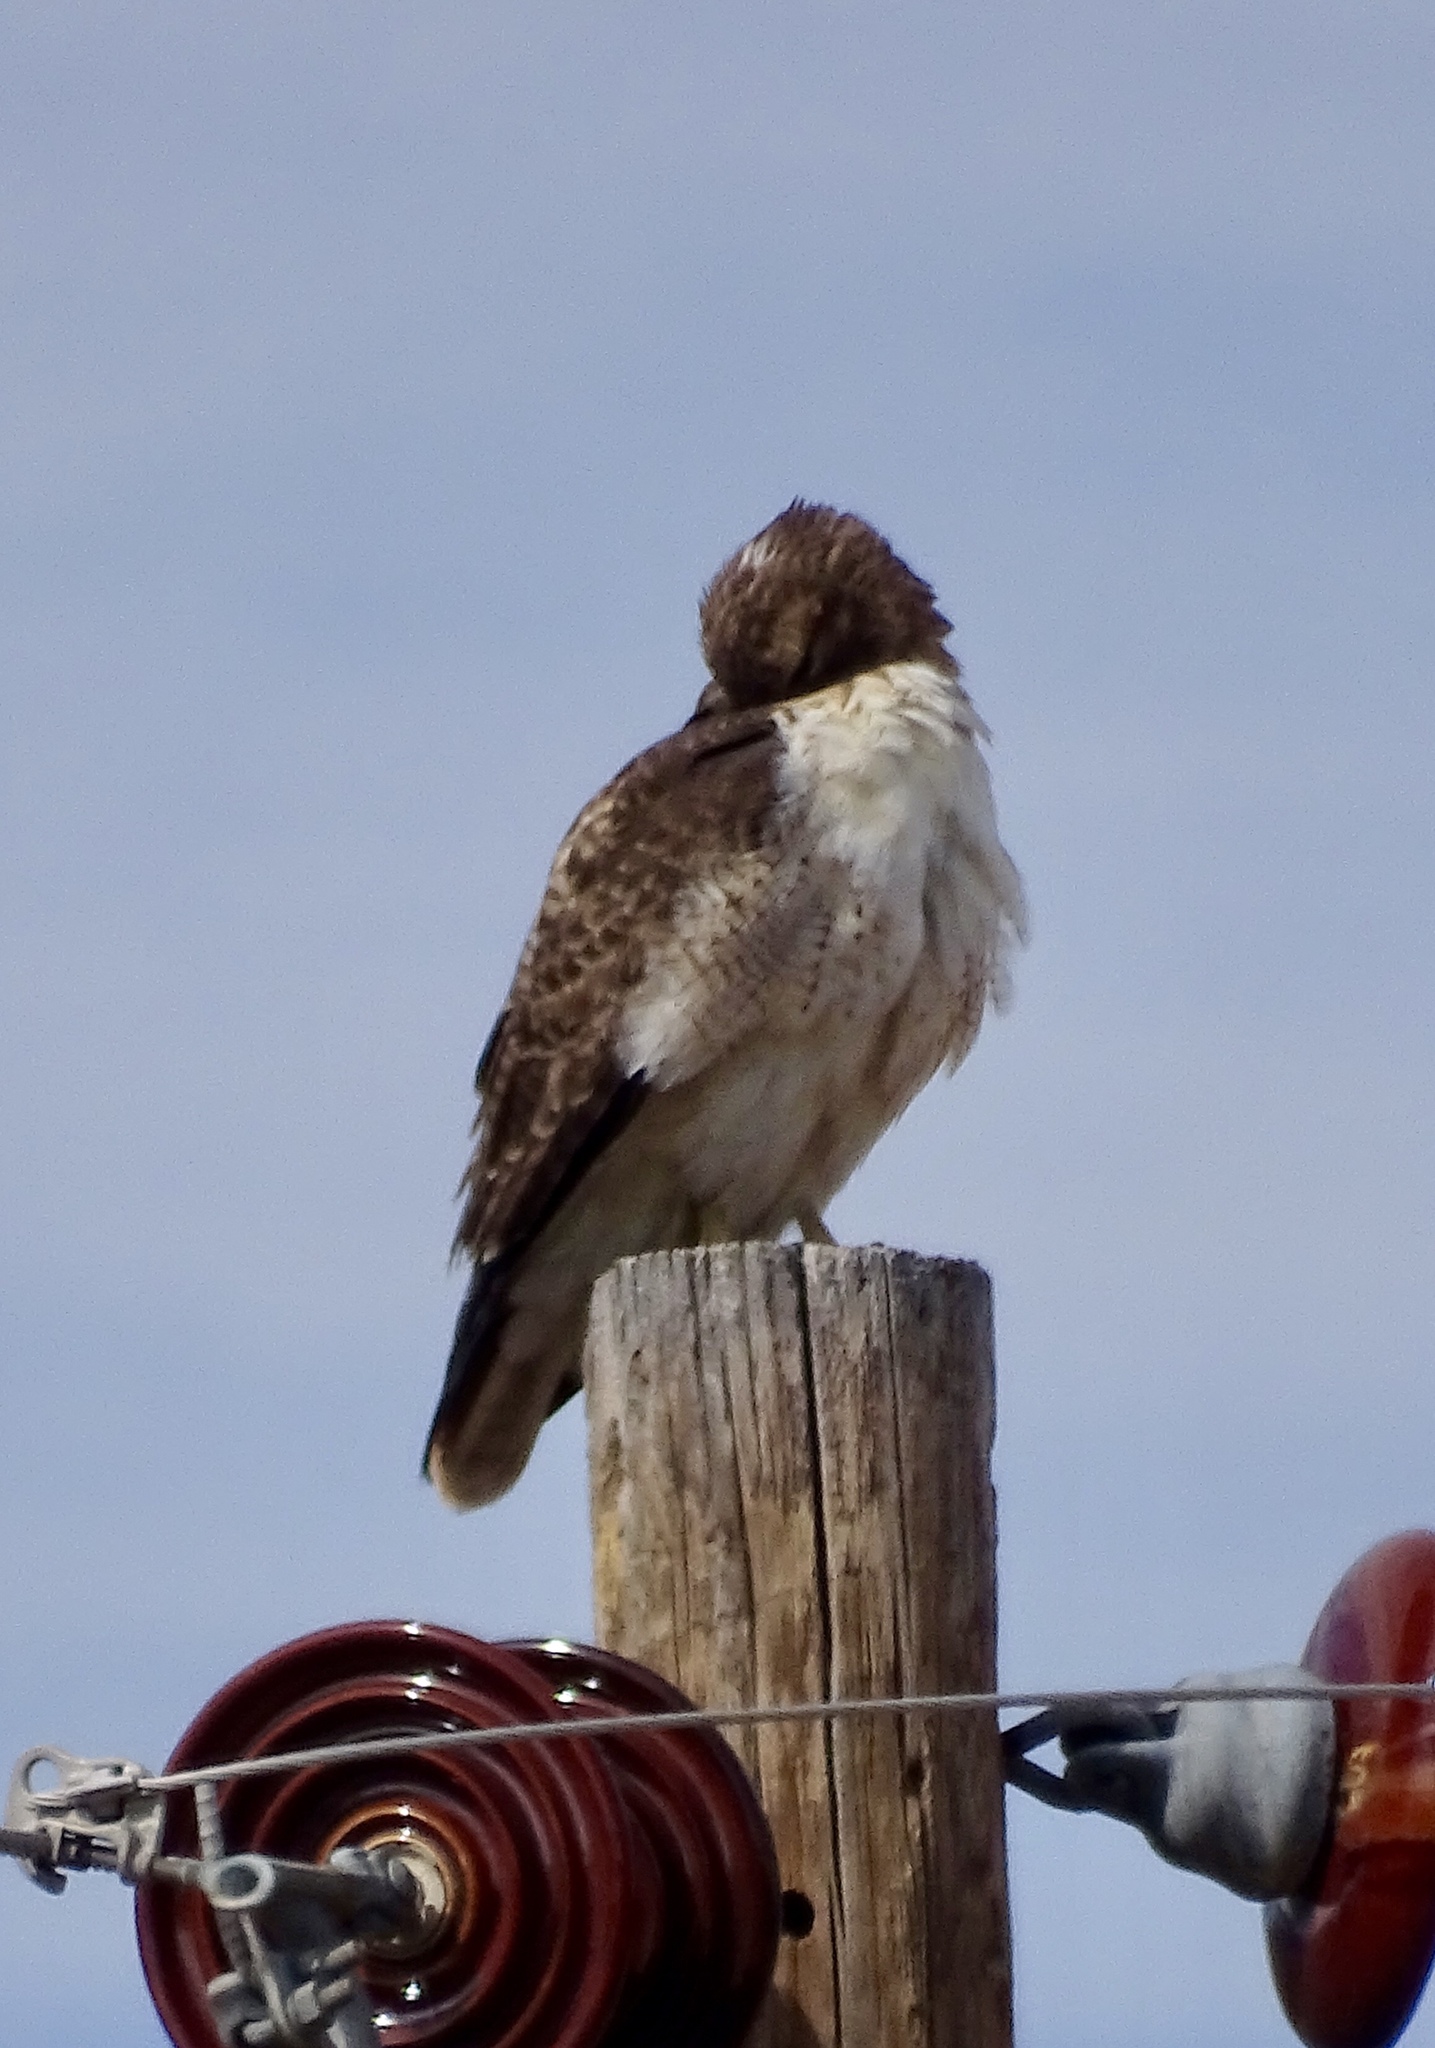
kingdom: Animalia
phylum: Chordata
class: Aves
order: Accipitriformes
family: Accipitridae
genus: Buteo
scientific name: Buteo jamaicensis
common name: Red-tailed hawk
